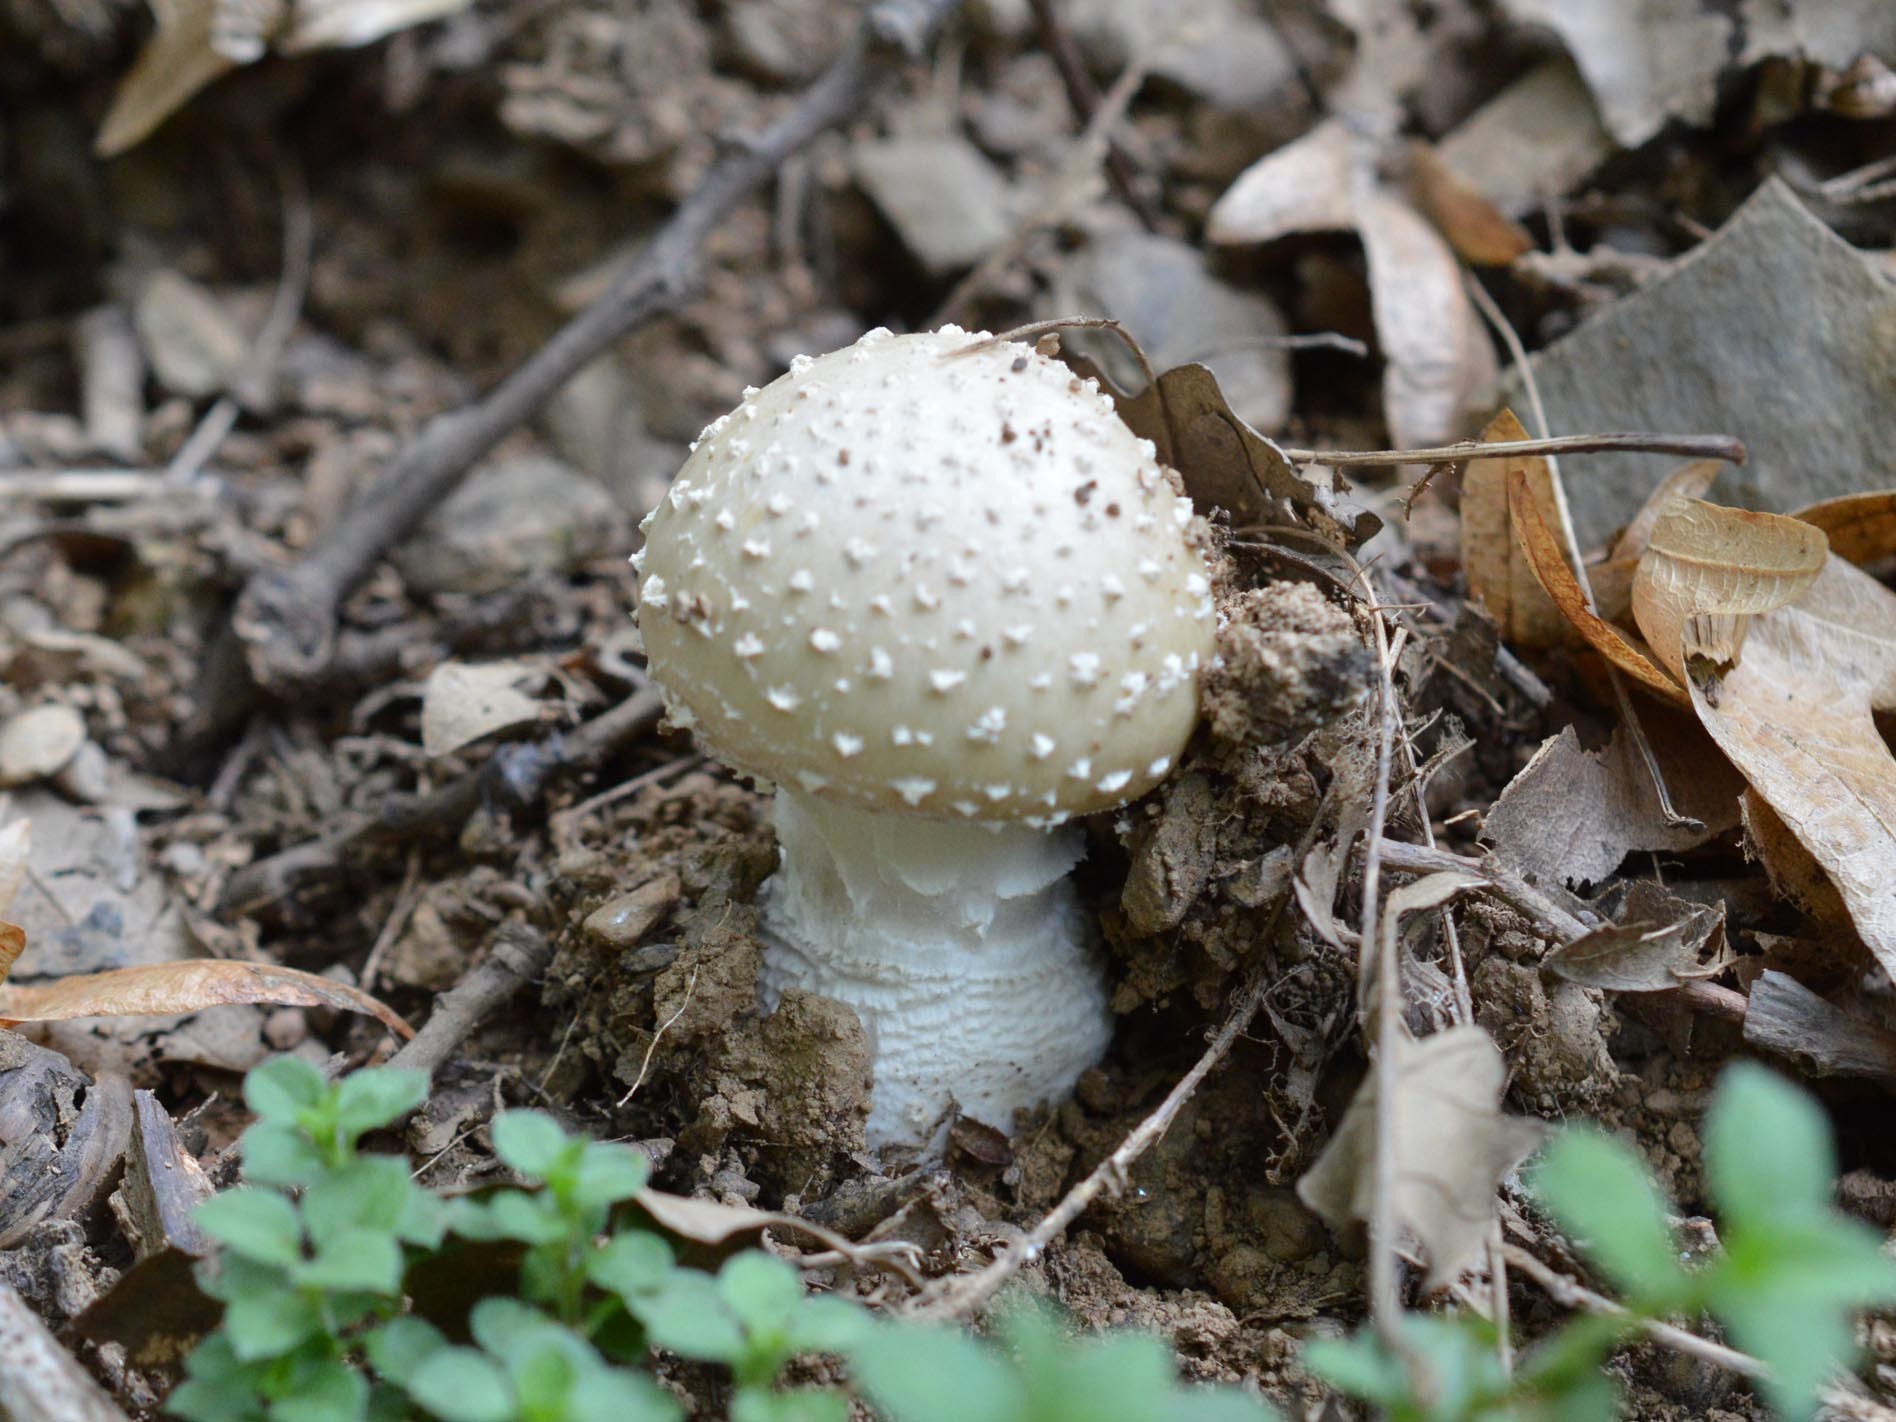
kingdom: Fungi
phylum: Basidiomycota
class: Agaricomycetes
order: Agaricales
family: Amanitaceae
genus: Amanita
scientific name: Amanita pantherina
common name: Panthercap
